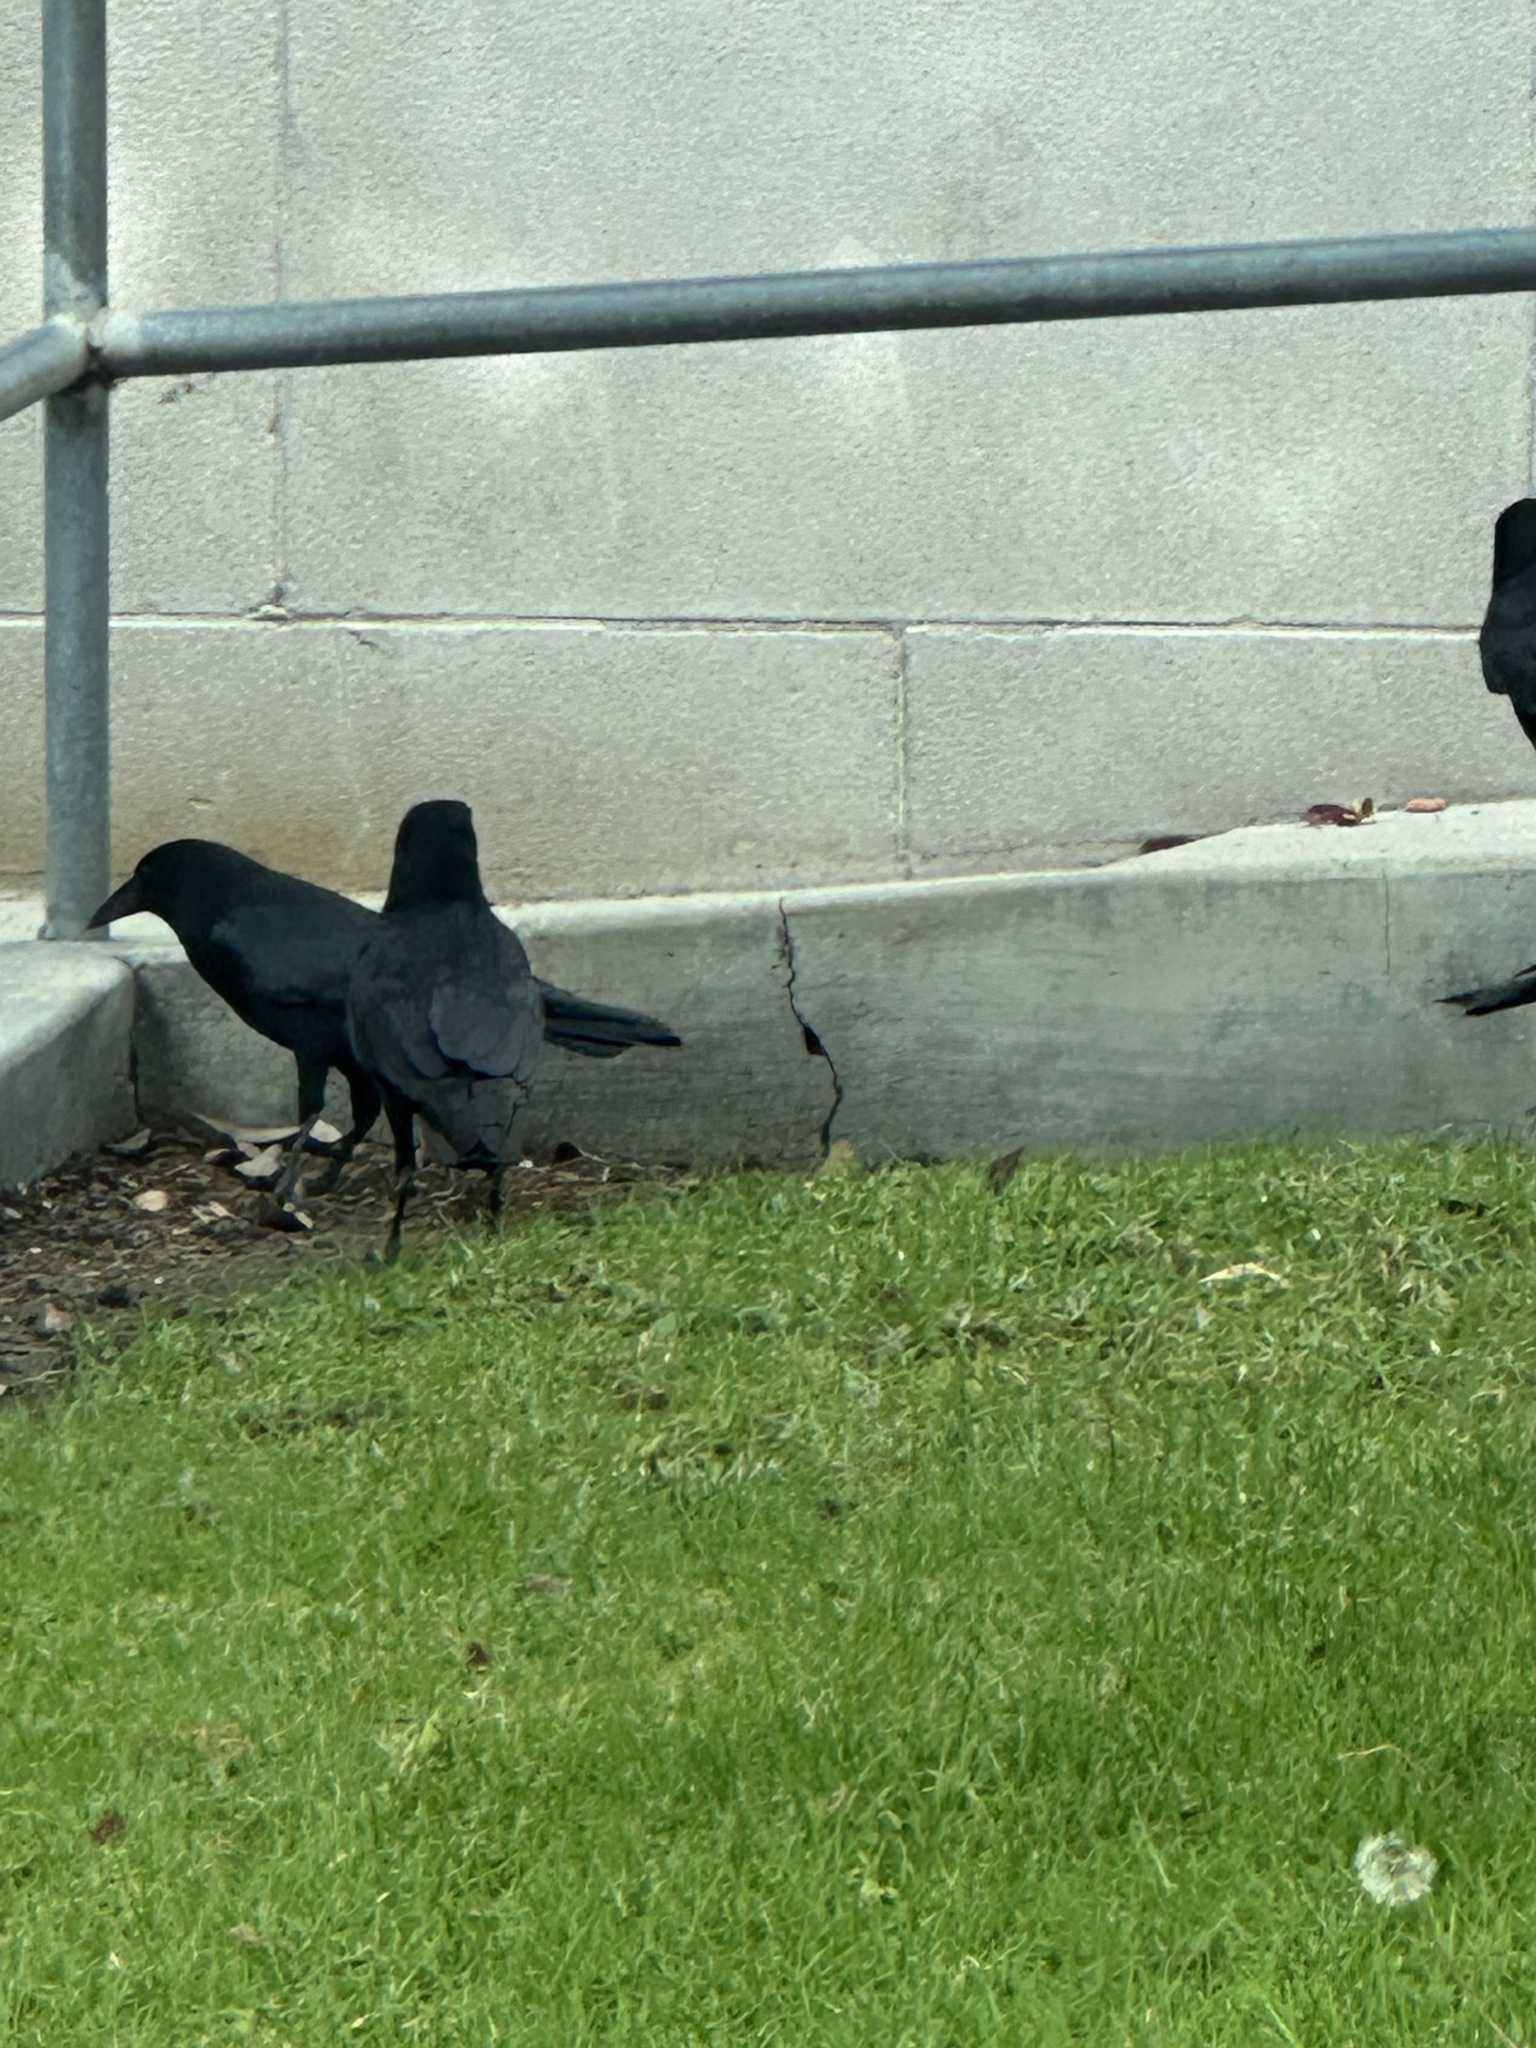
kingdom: Animalia
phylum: Chordata
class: Aves
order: Passeriformes
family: Corvidae
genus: Corvus
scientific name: Corvus brachyrhynchos
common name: American crow
